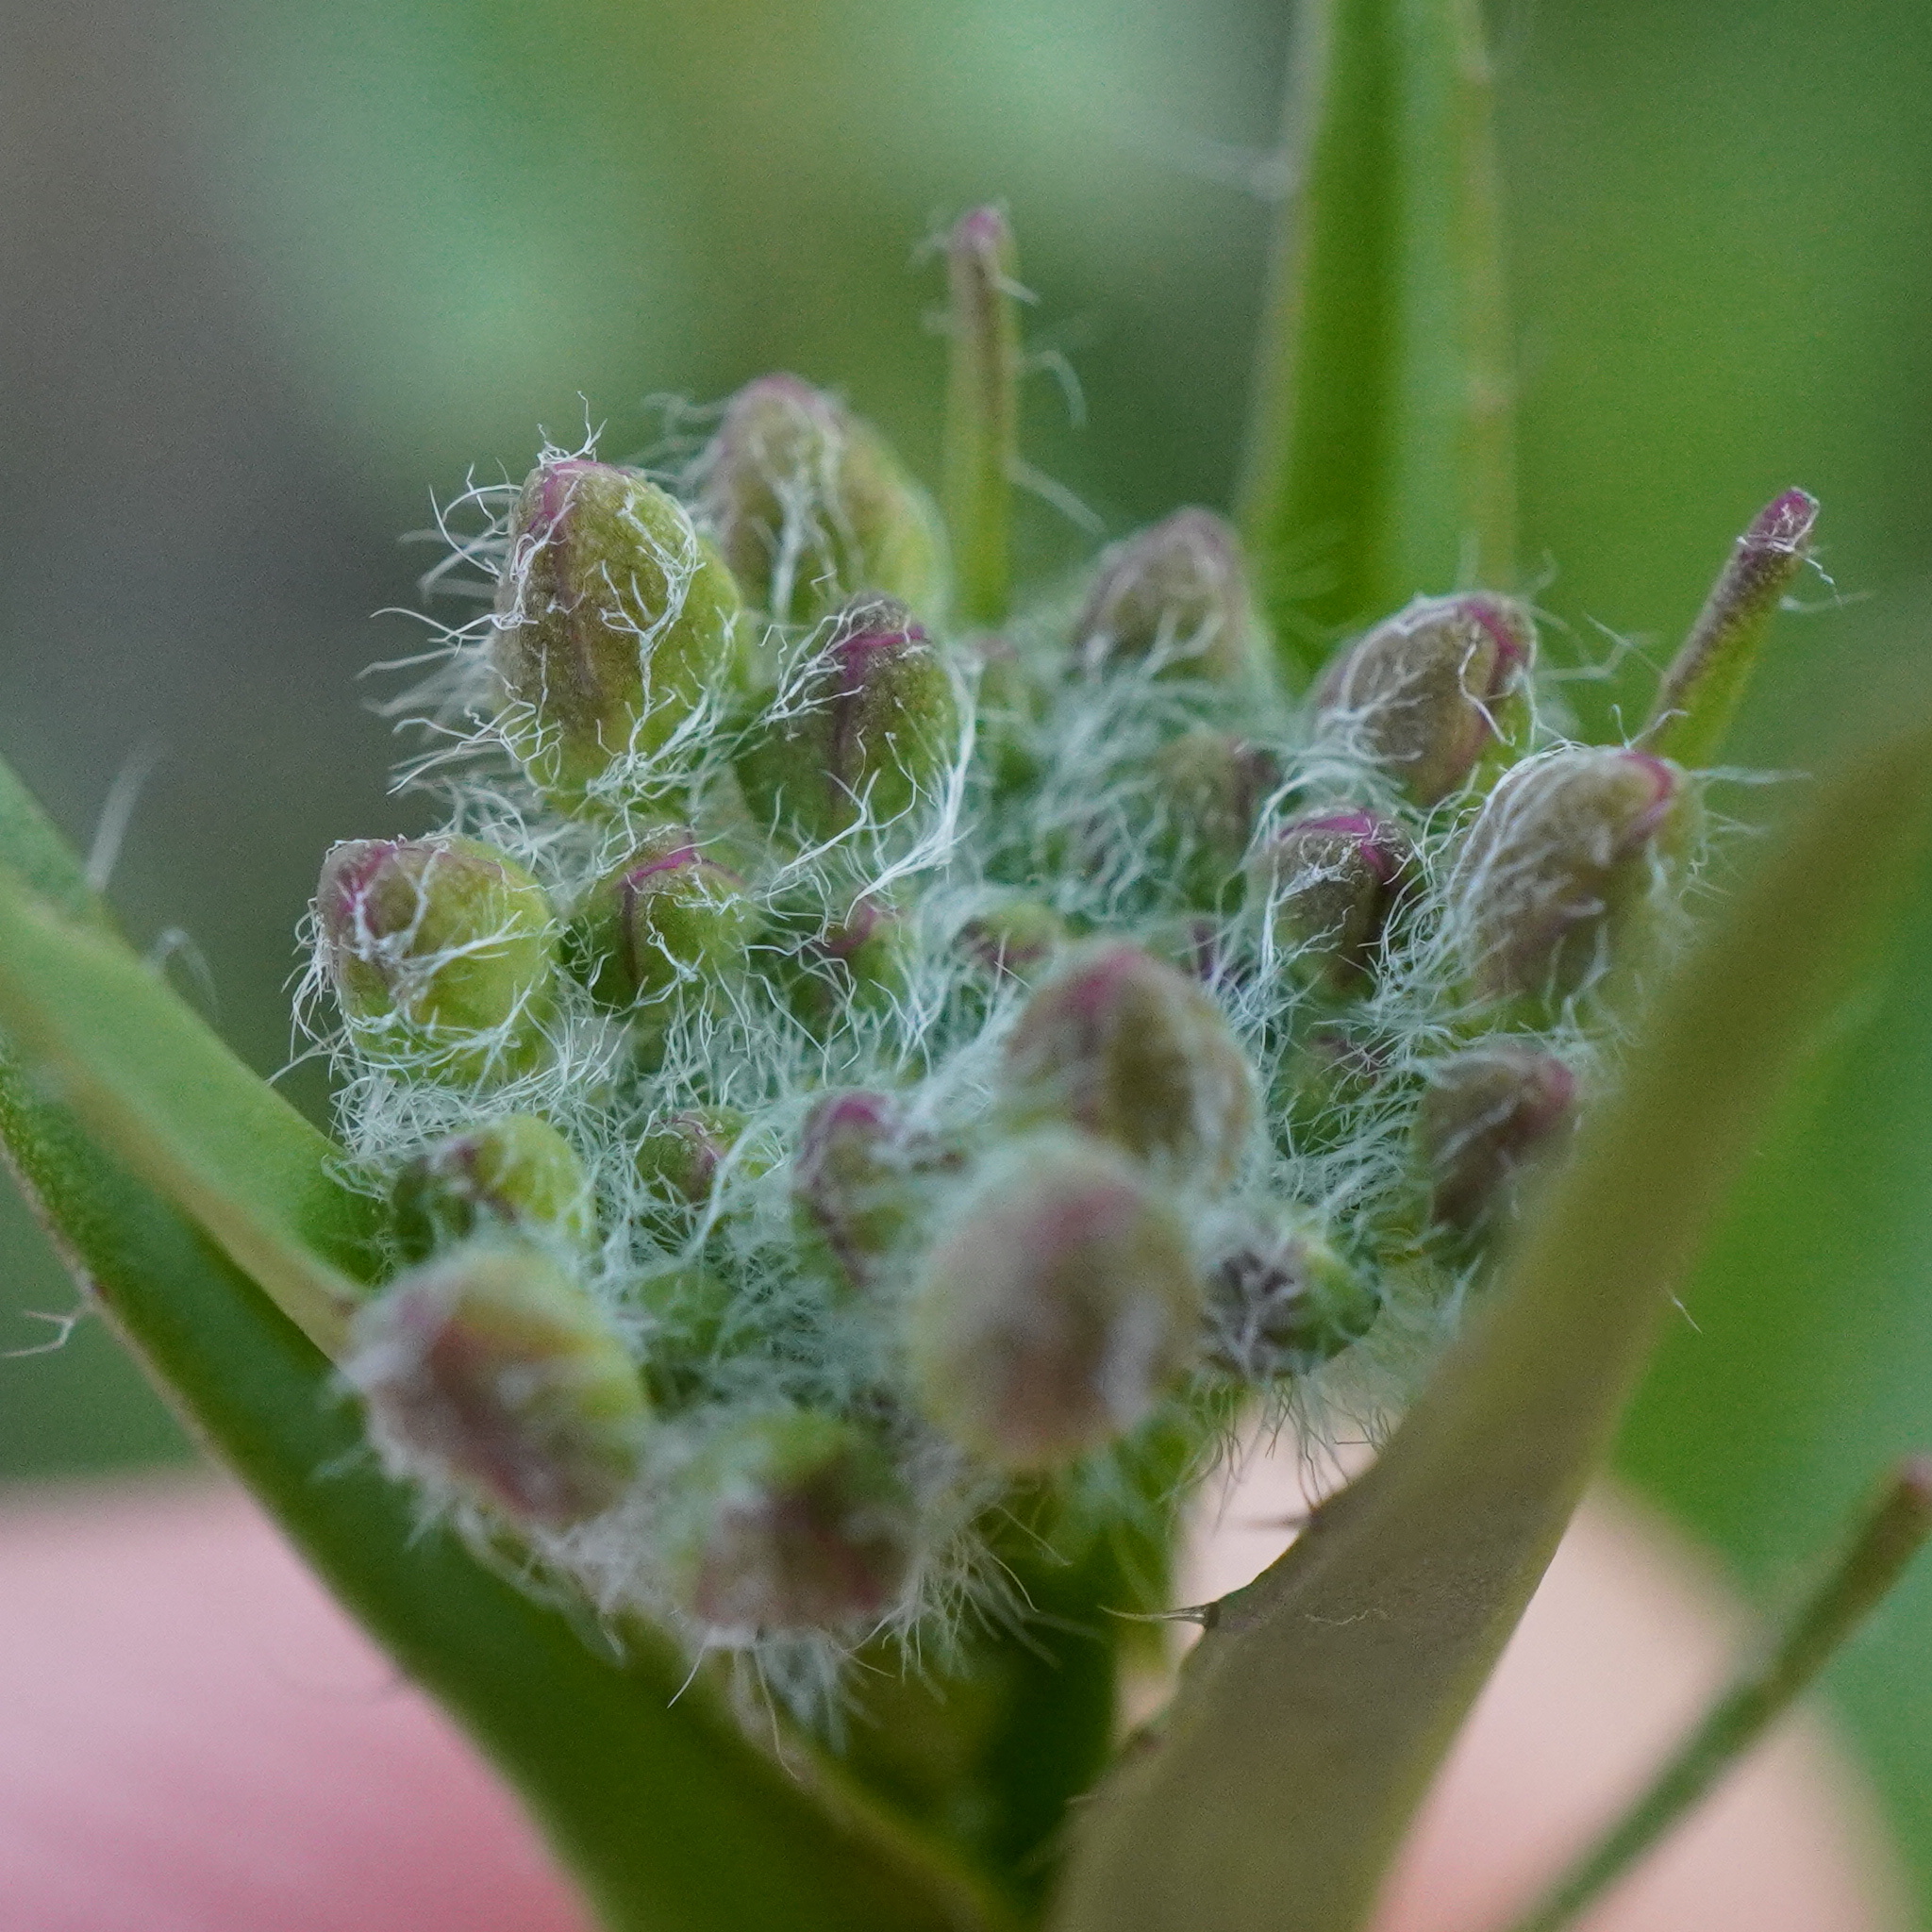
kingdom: Plantae
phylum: Tracheophyta
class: Magnoliopsida
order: Brassicales
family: Brassicaceae
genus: Camelina
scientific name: Camelina microcarpa
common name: Lesser gold-of-pleasure
